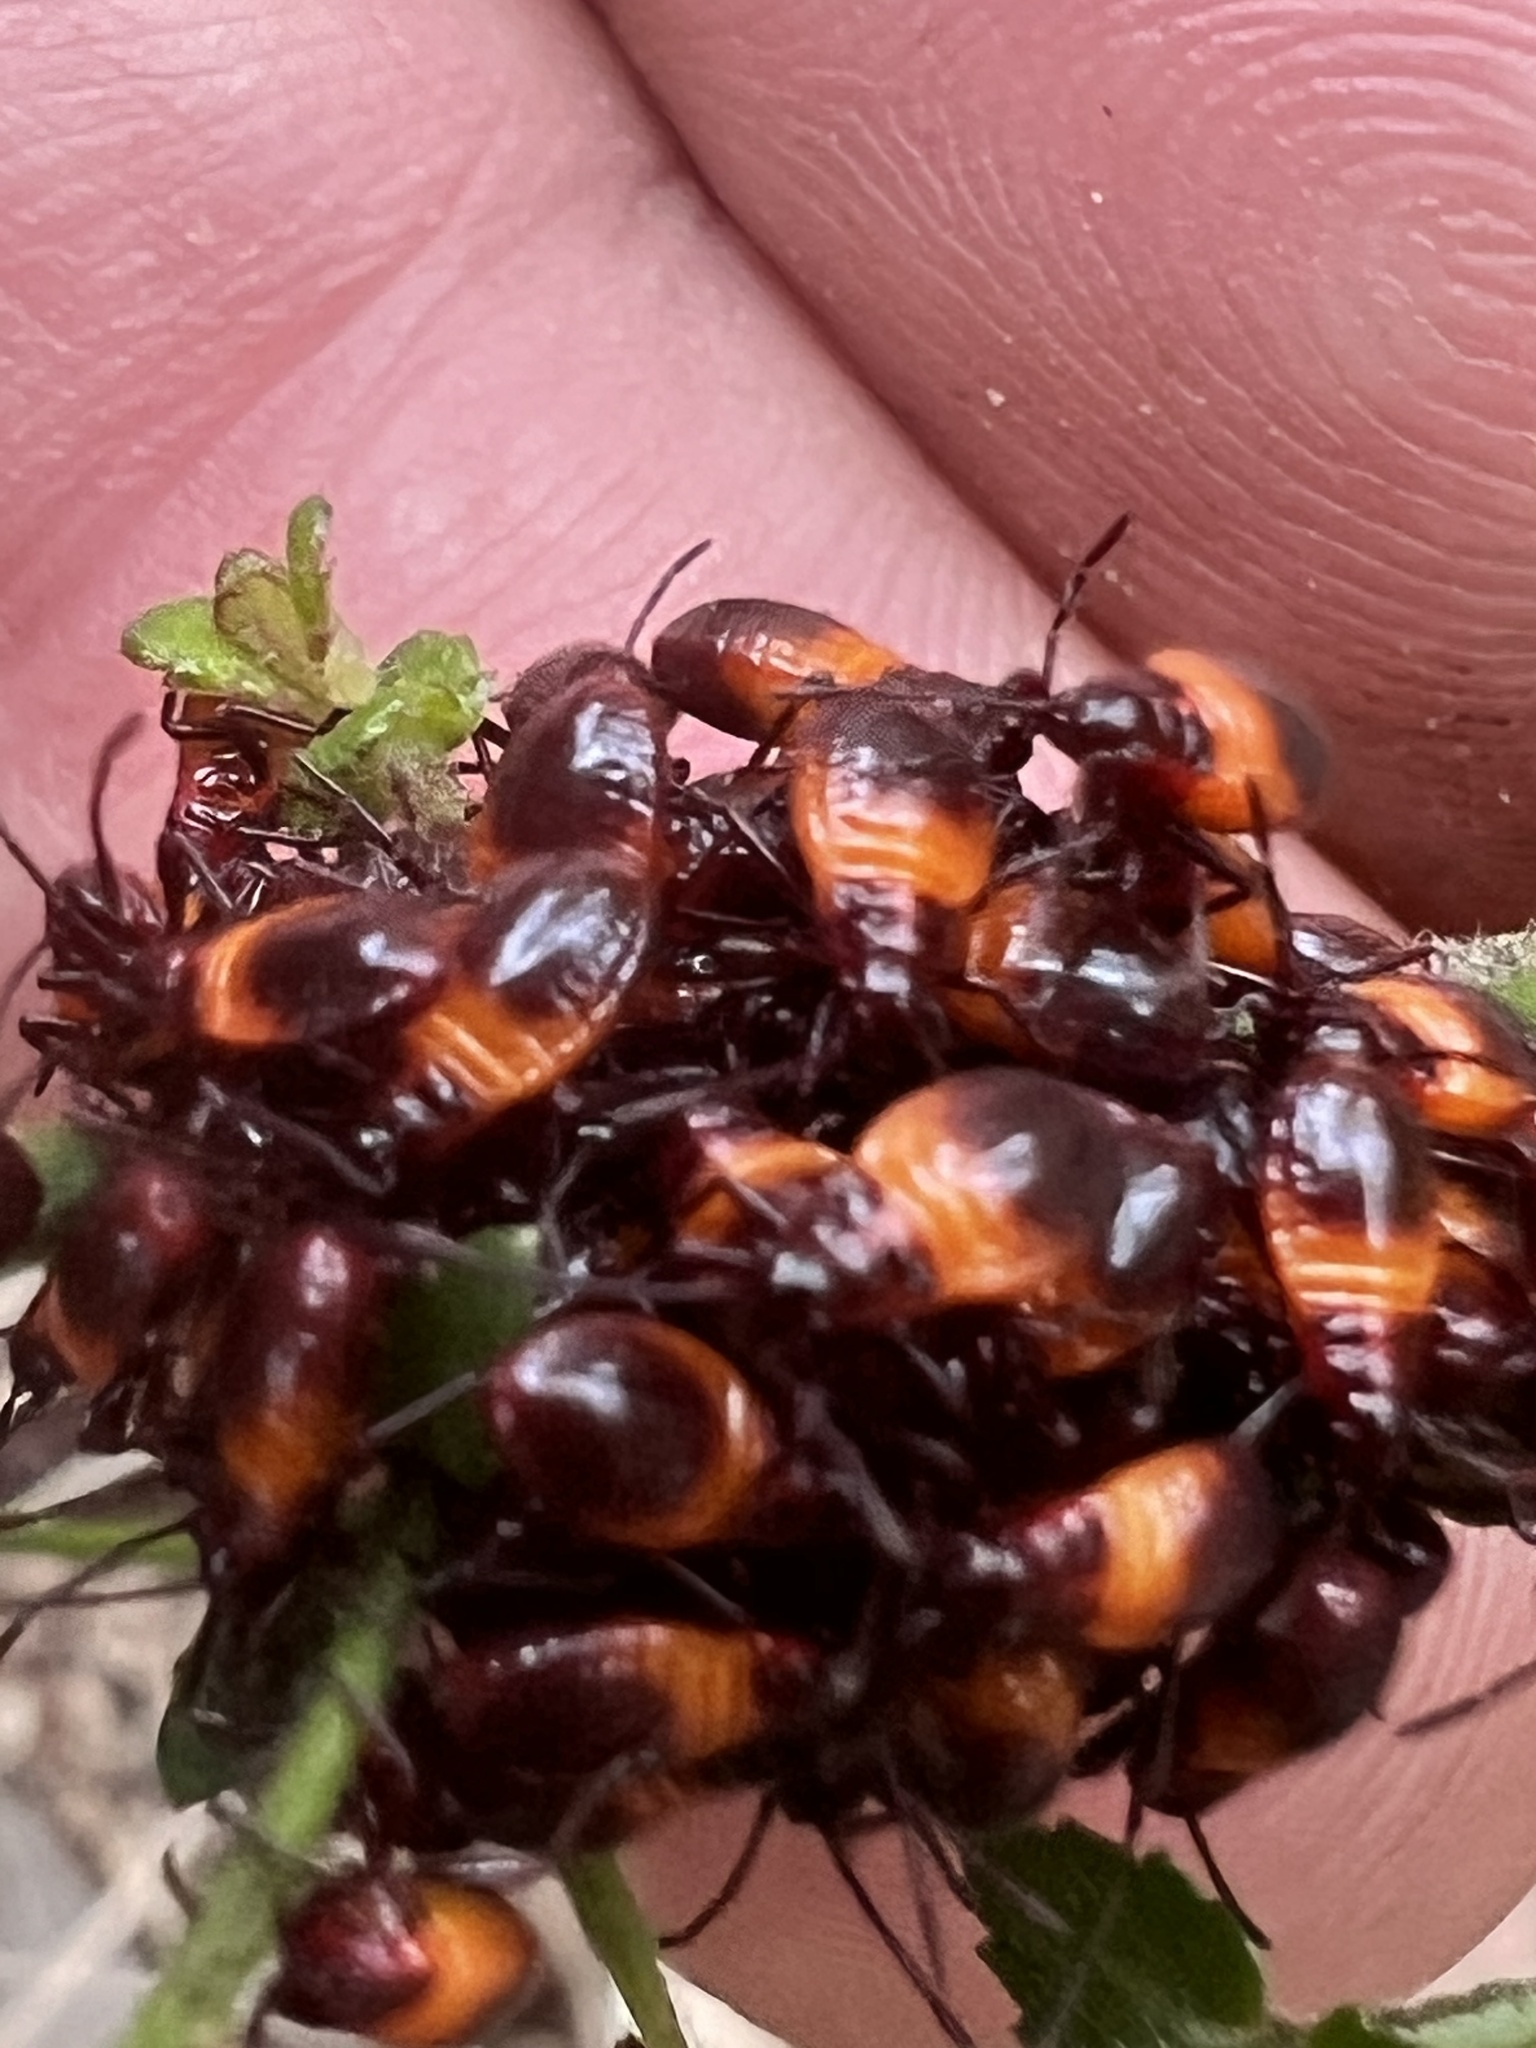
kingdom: Animalia
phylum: Arthropoda
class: Insecta
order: Hemiptera
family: Lygaeidae
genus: Oncopeltus
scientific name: Oncopeltus sordidus
